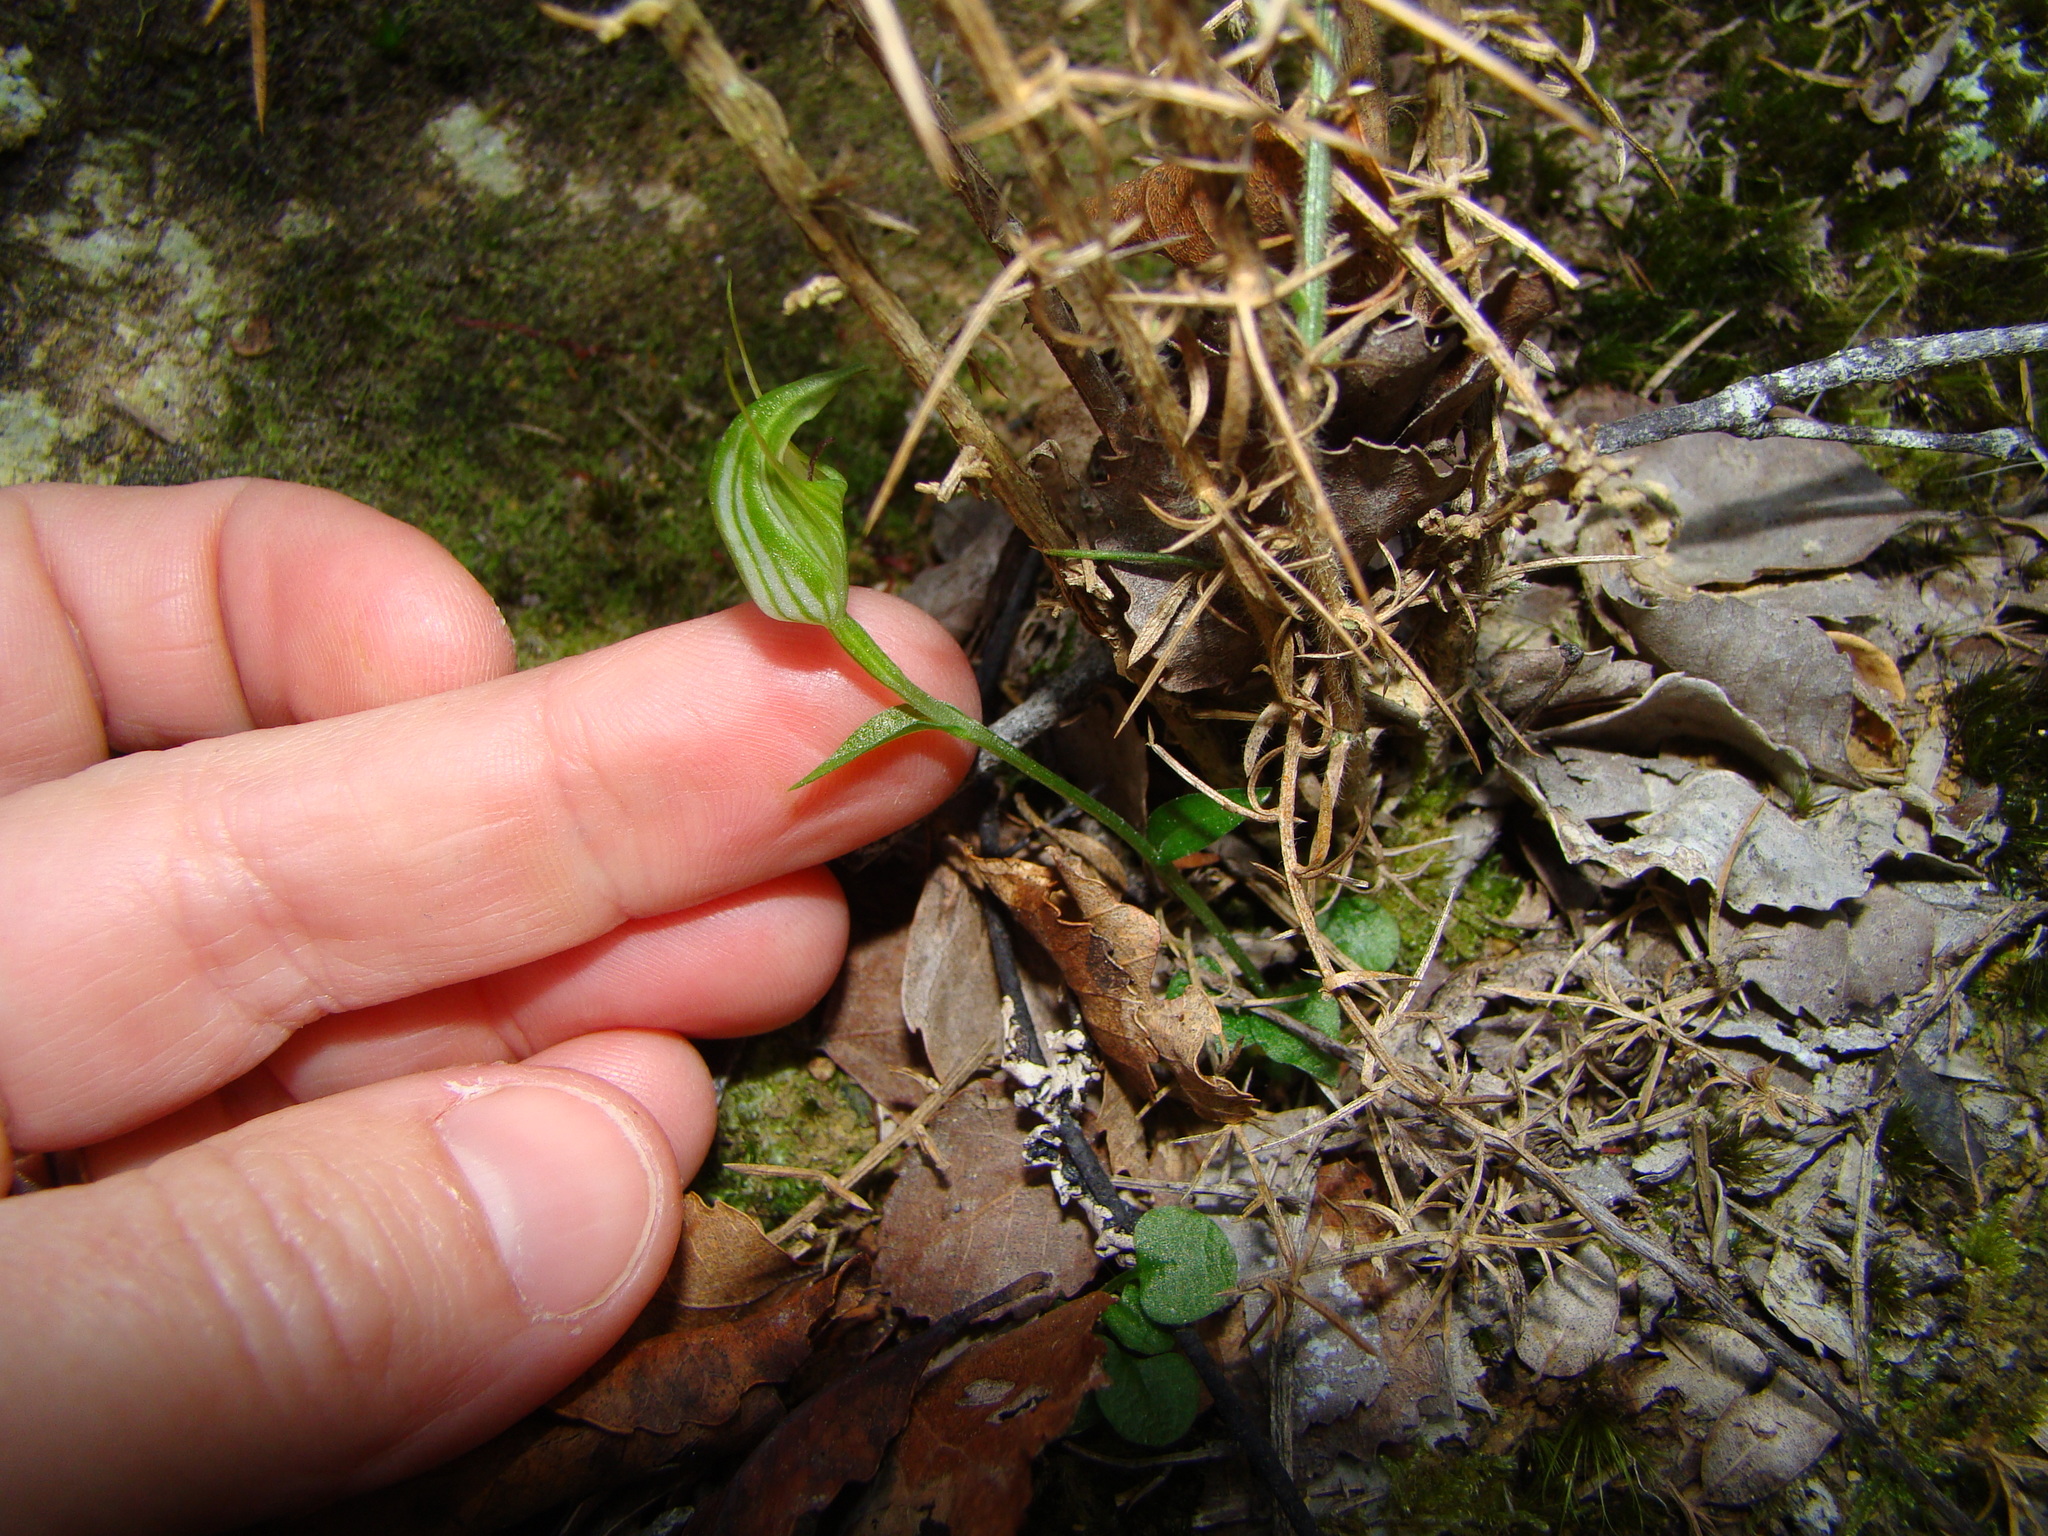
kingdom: Plantae
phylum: Tracheophyta
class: Liliopsida
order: Asparagales
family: Orchidaceae
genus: Pterostylis
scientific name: Pterostylis trullifolia
